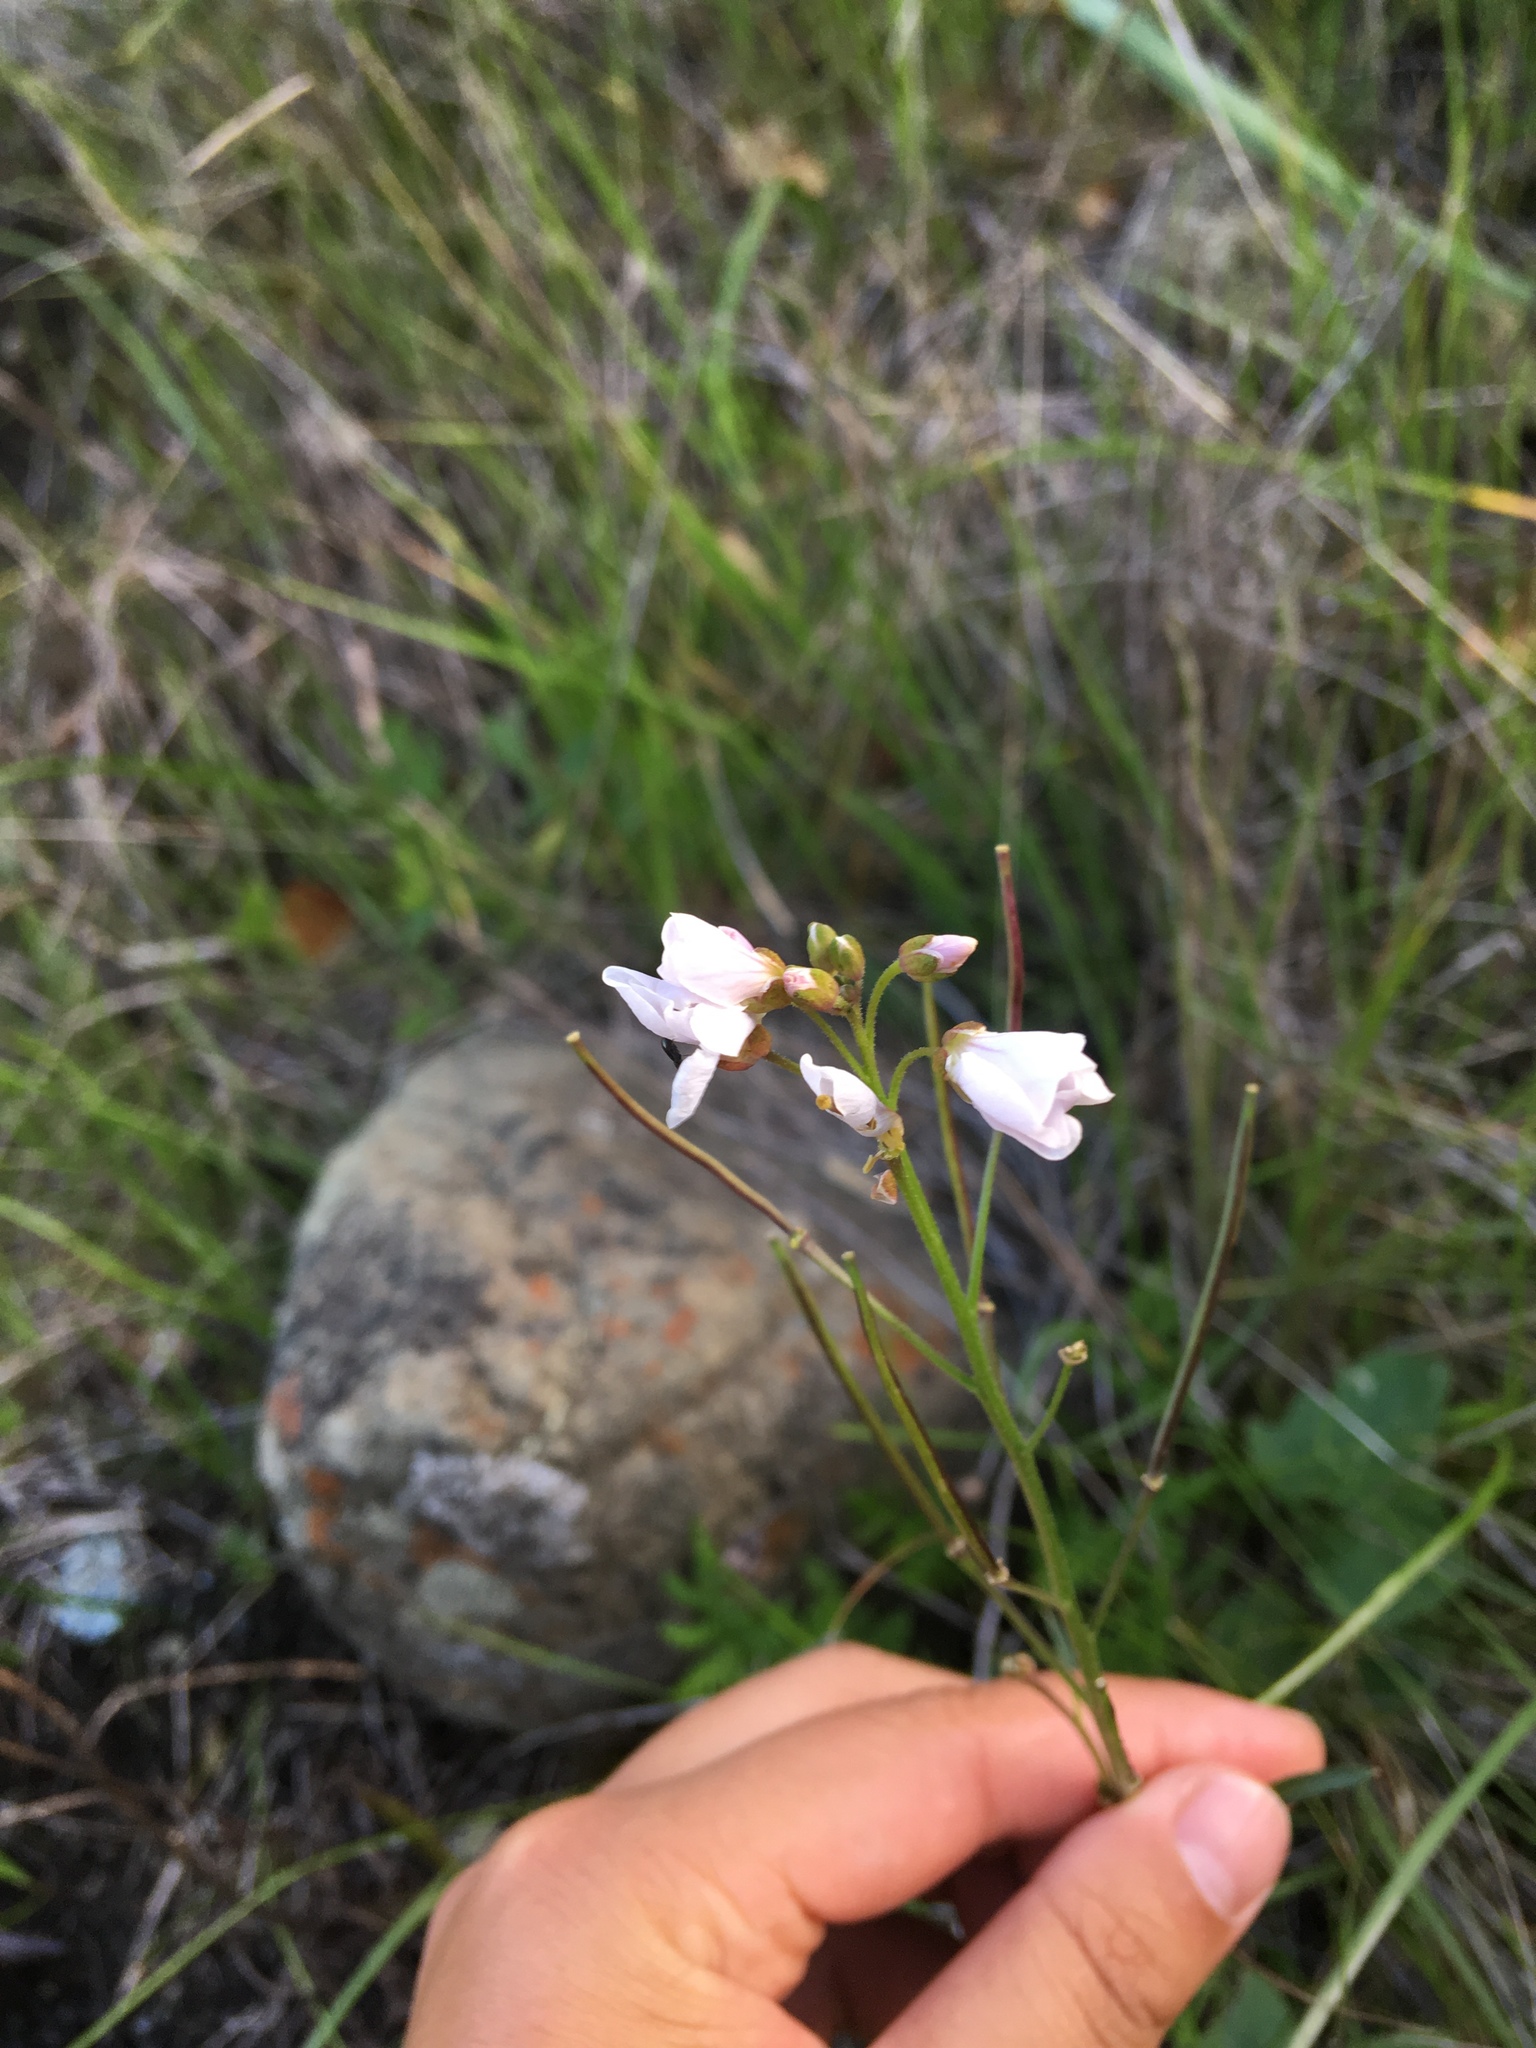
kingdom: Plantae
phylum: Tracheophyta
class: Magnoliopsida
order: Brassicales
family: Brassicaceae
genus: Cardamine
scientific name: Cardamine californica
